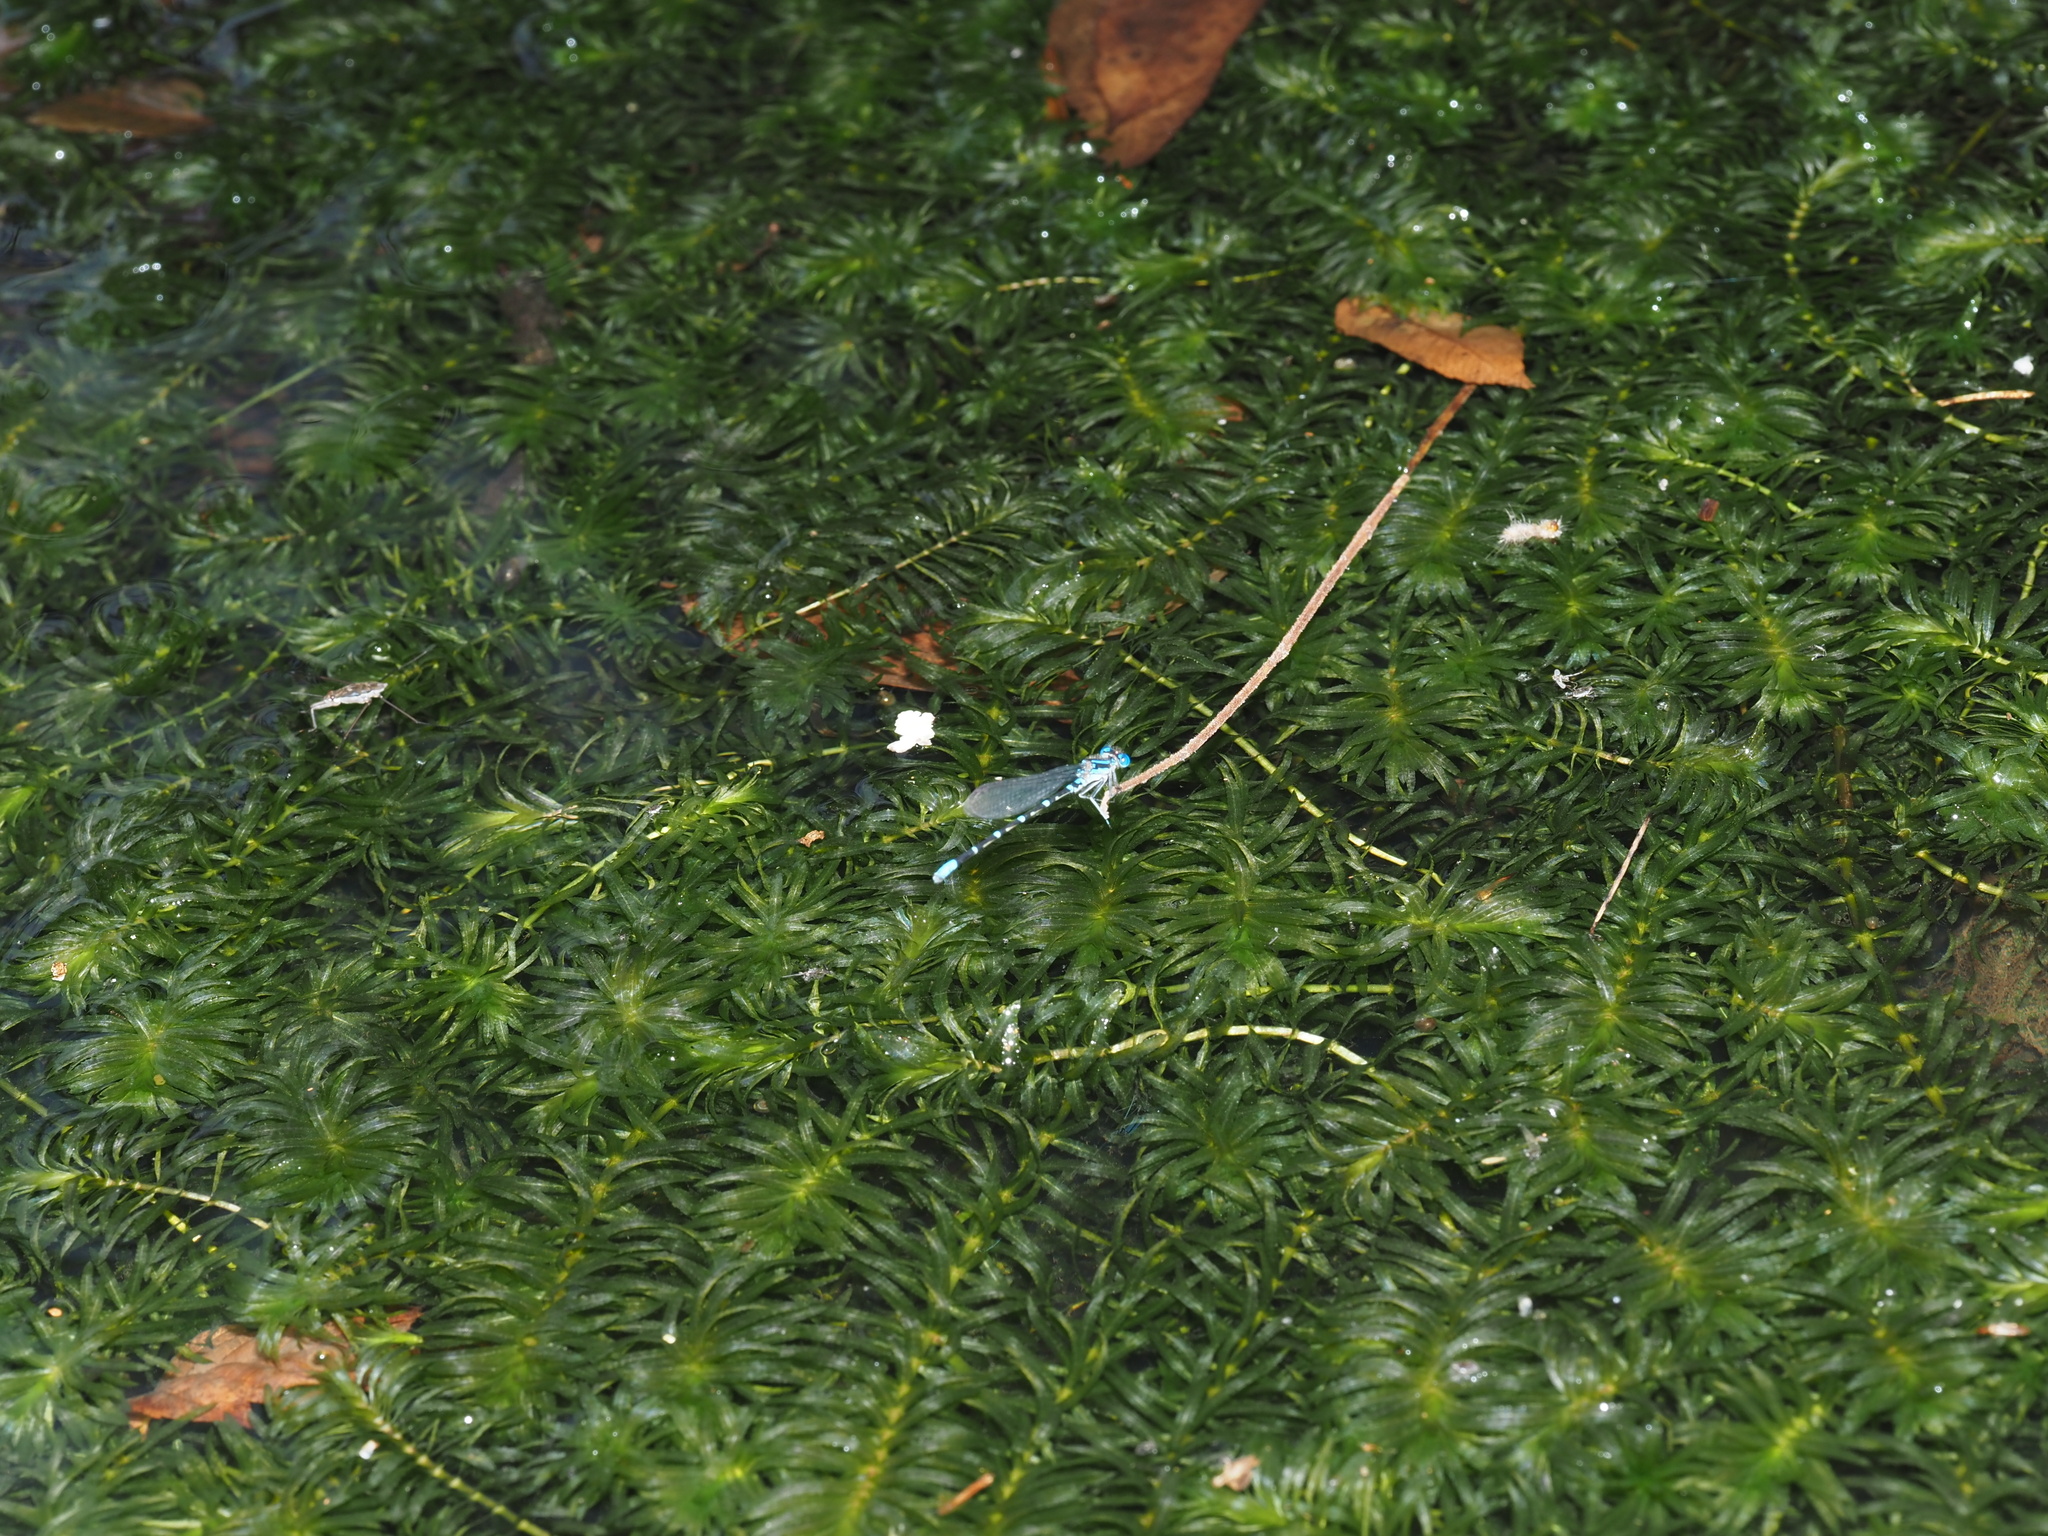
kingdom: Plantae
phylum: Tracheophyta
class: Liliopsida
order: Alismatales
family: Hydrocharitaceae
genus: Hydrilla
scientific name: Hydrilla verticillata
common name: Florida-elodea
